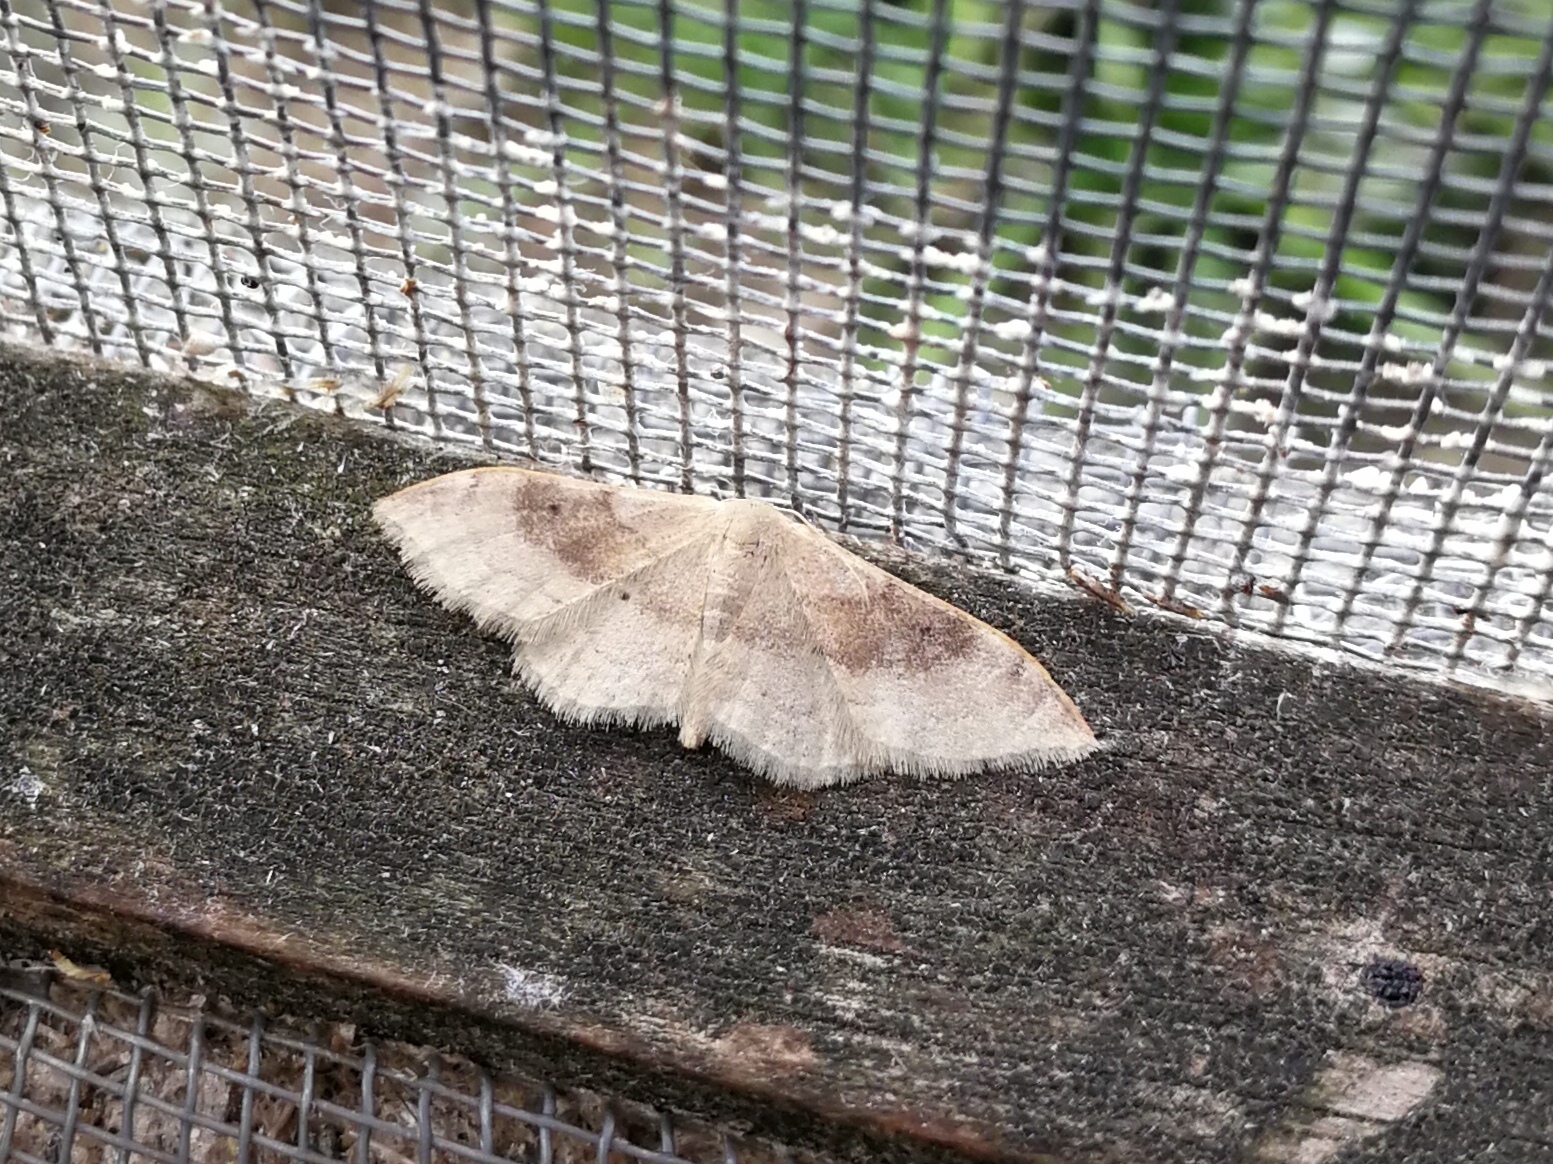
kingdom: Animalia
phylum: Arthropoda
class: Insecta
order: Lepidoptera
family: Geometridae
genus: Idaea
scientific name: Idaea degeneraria
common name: Portland ribbon wave
